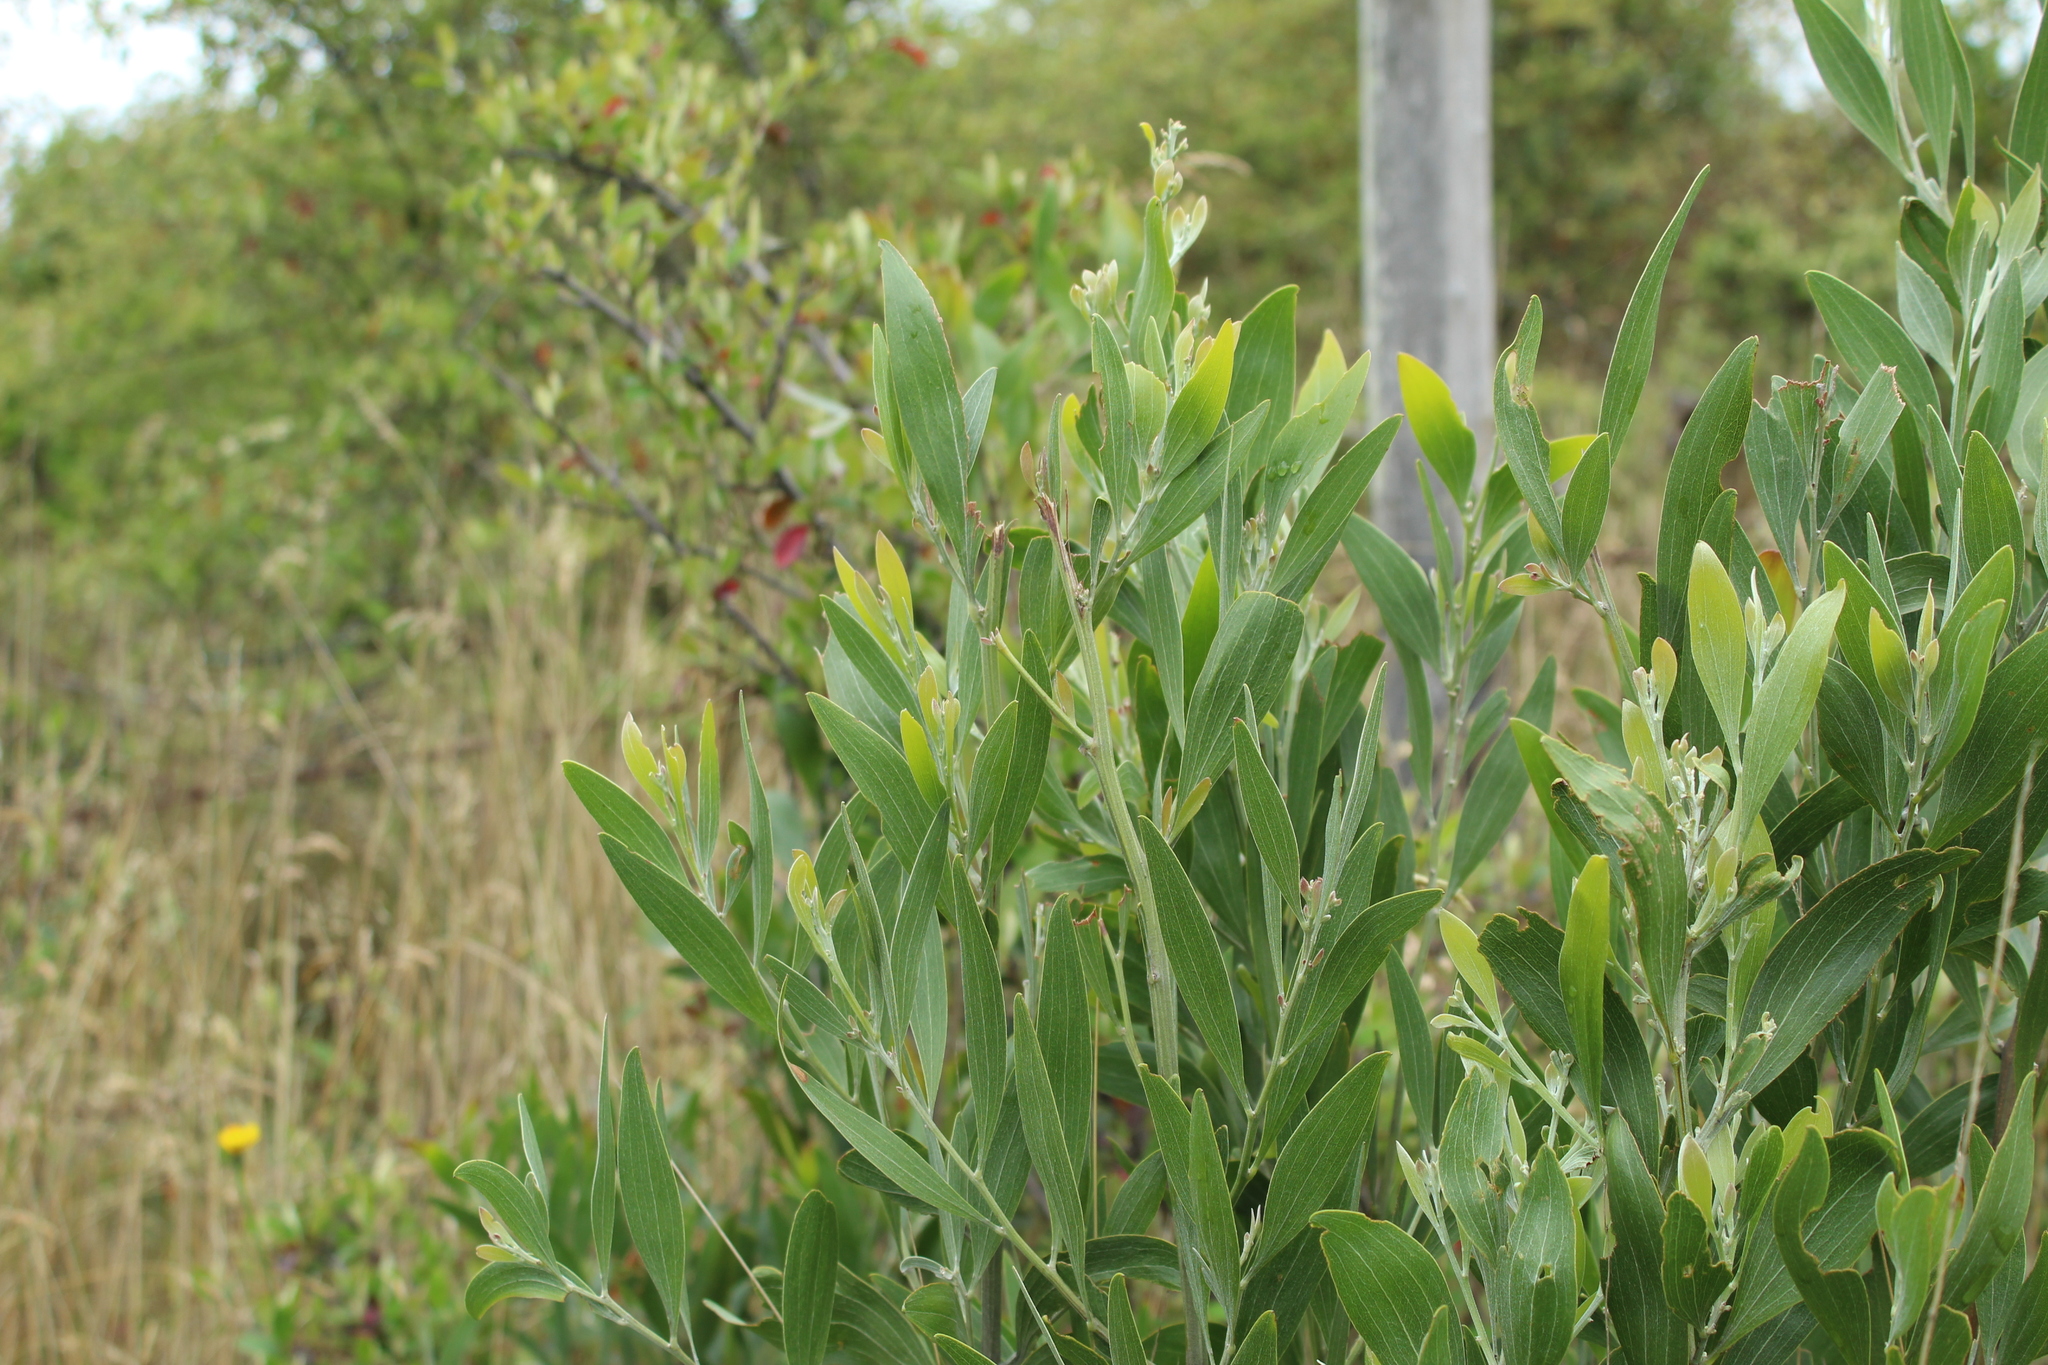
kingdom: Plantae
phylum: Tracheophyta
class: Magnoliopsida
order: Fabales
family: Fabaceae
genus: Acacia
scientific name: Acacia melanoxylon
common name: Blackwood
